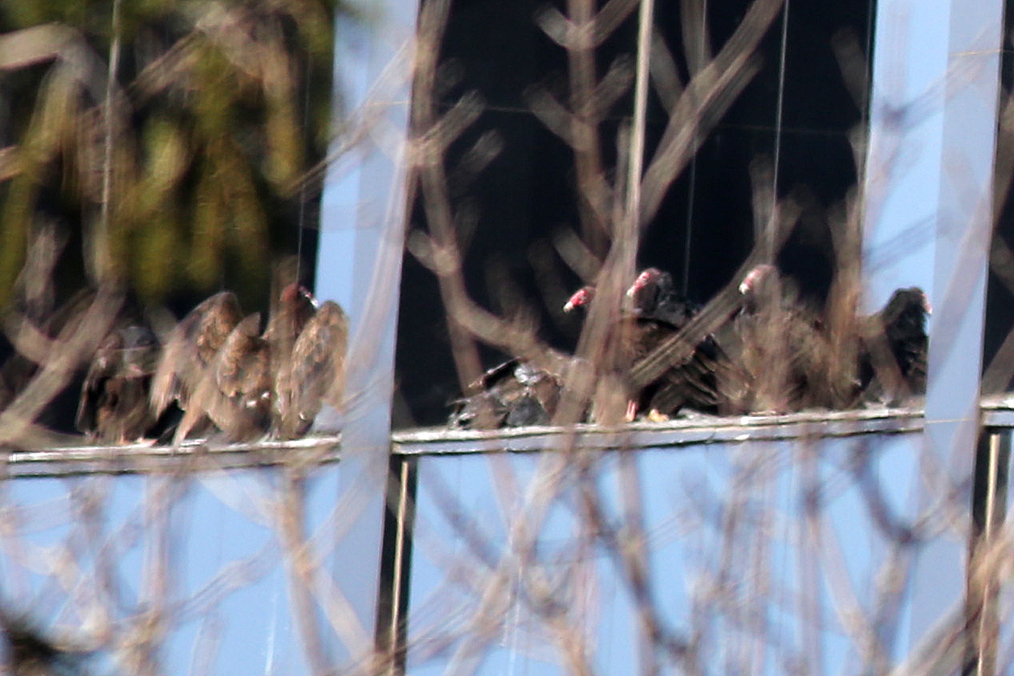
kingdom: Animalia
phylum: Chordata
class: Aves
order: Accipitriformes
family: Cathartidae
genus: Cathartes
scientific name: Cathartes aura
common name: Turkey vulture
